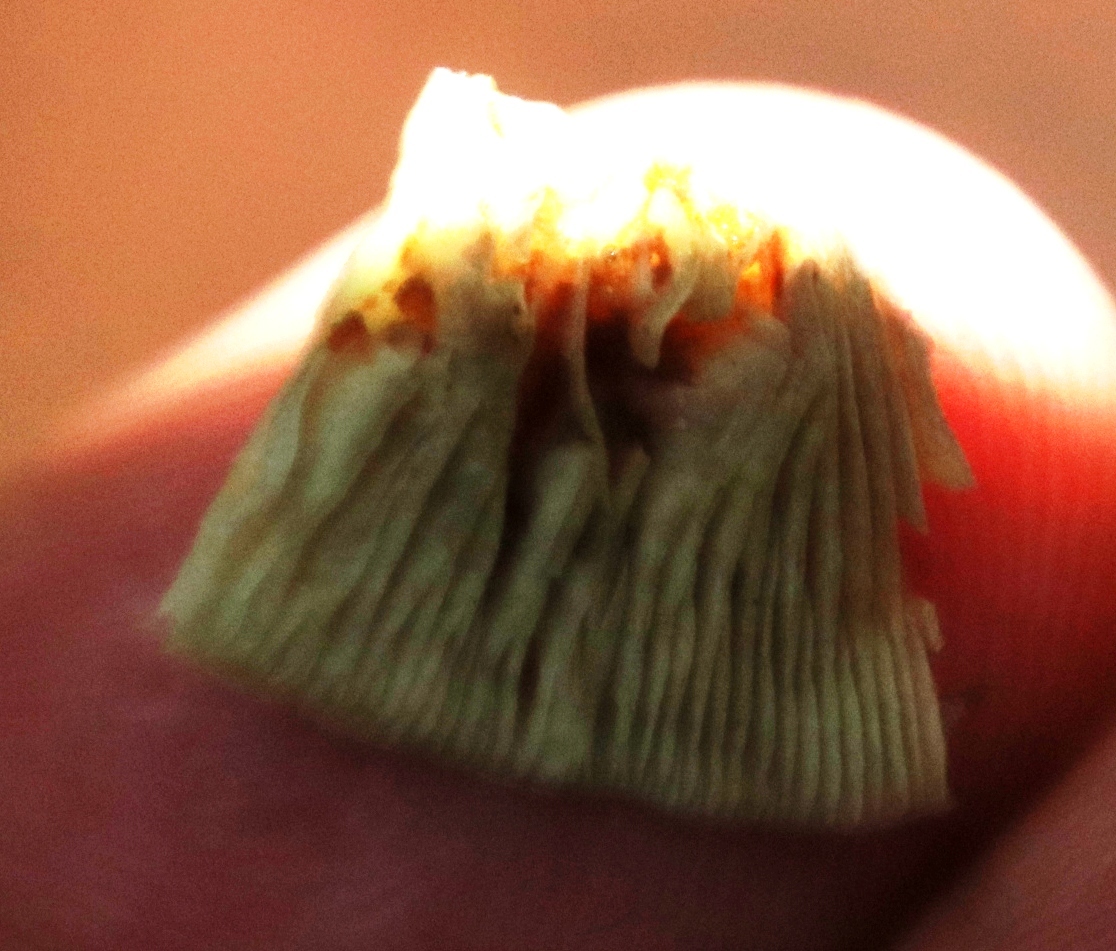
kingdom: Fungi
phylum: Basidiomycota
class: Agaricomycetes
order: Agaricales
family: Strophariaceae
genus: Hypholoma
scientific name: Hypholoma fasciculare
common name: Sulphur tuft
